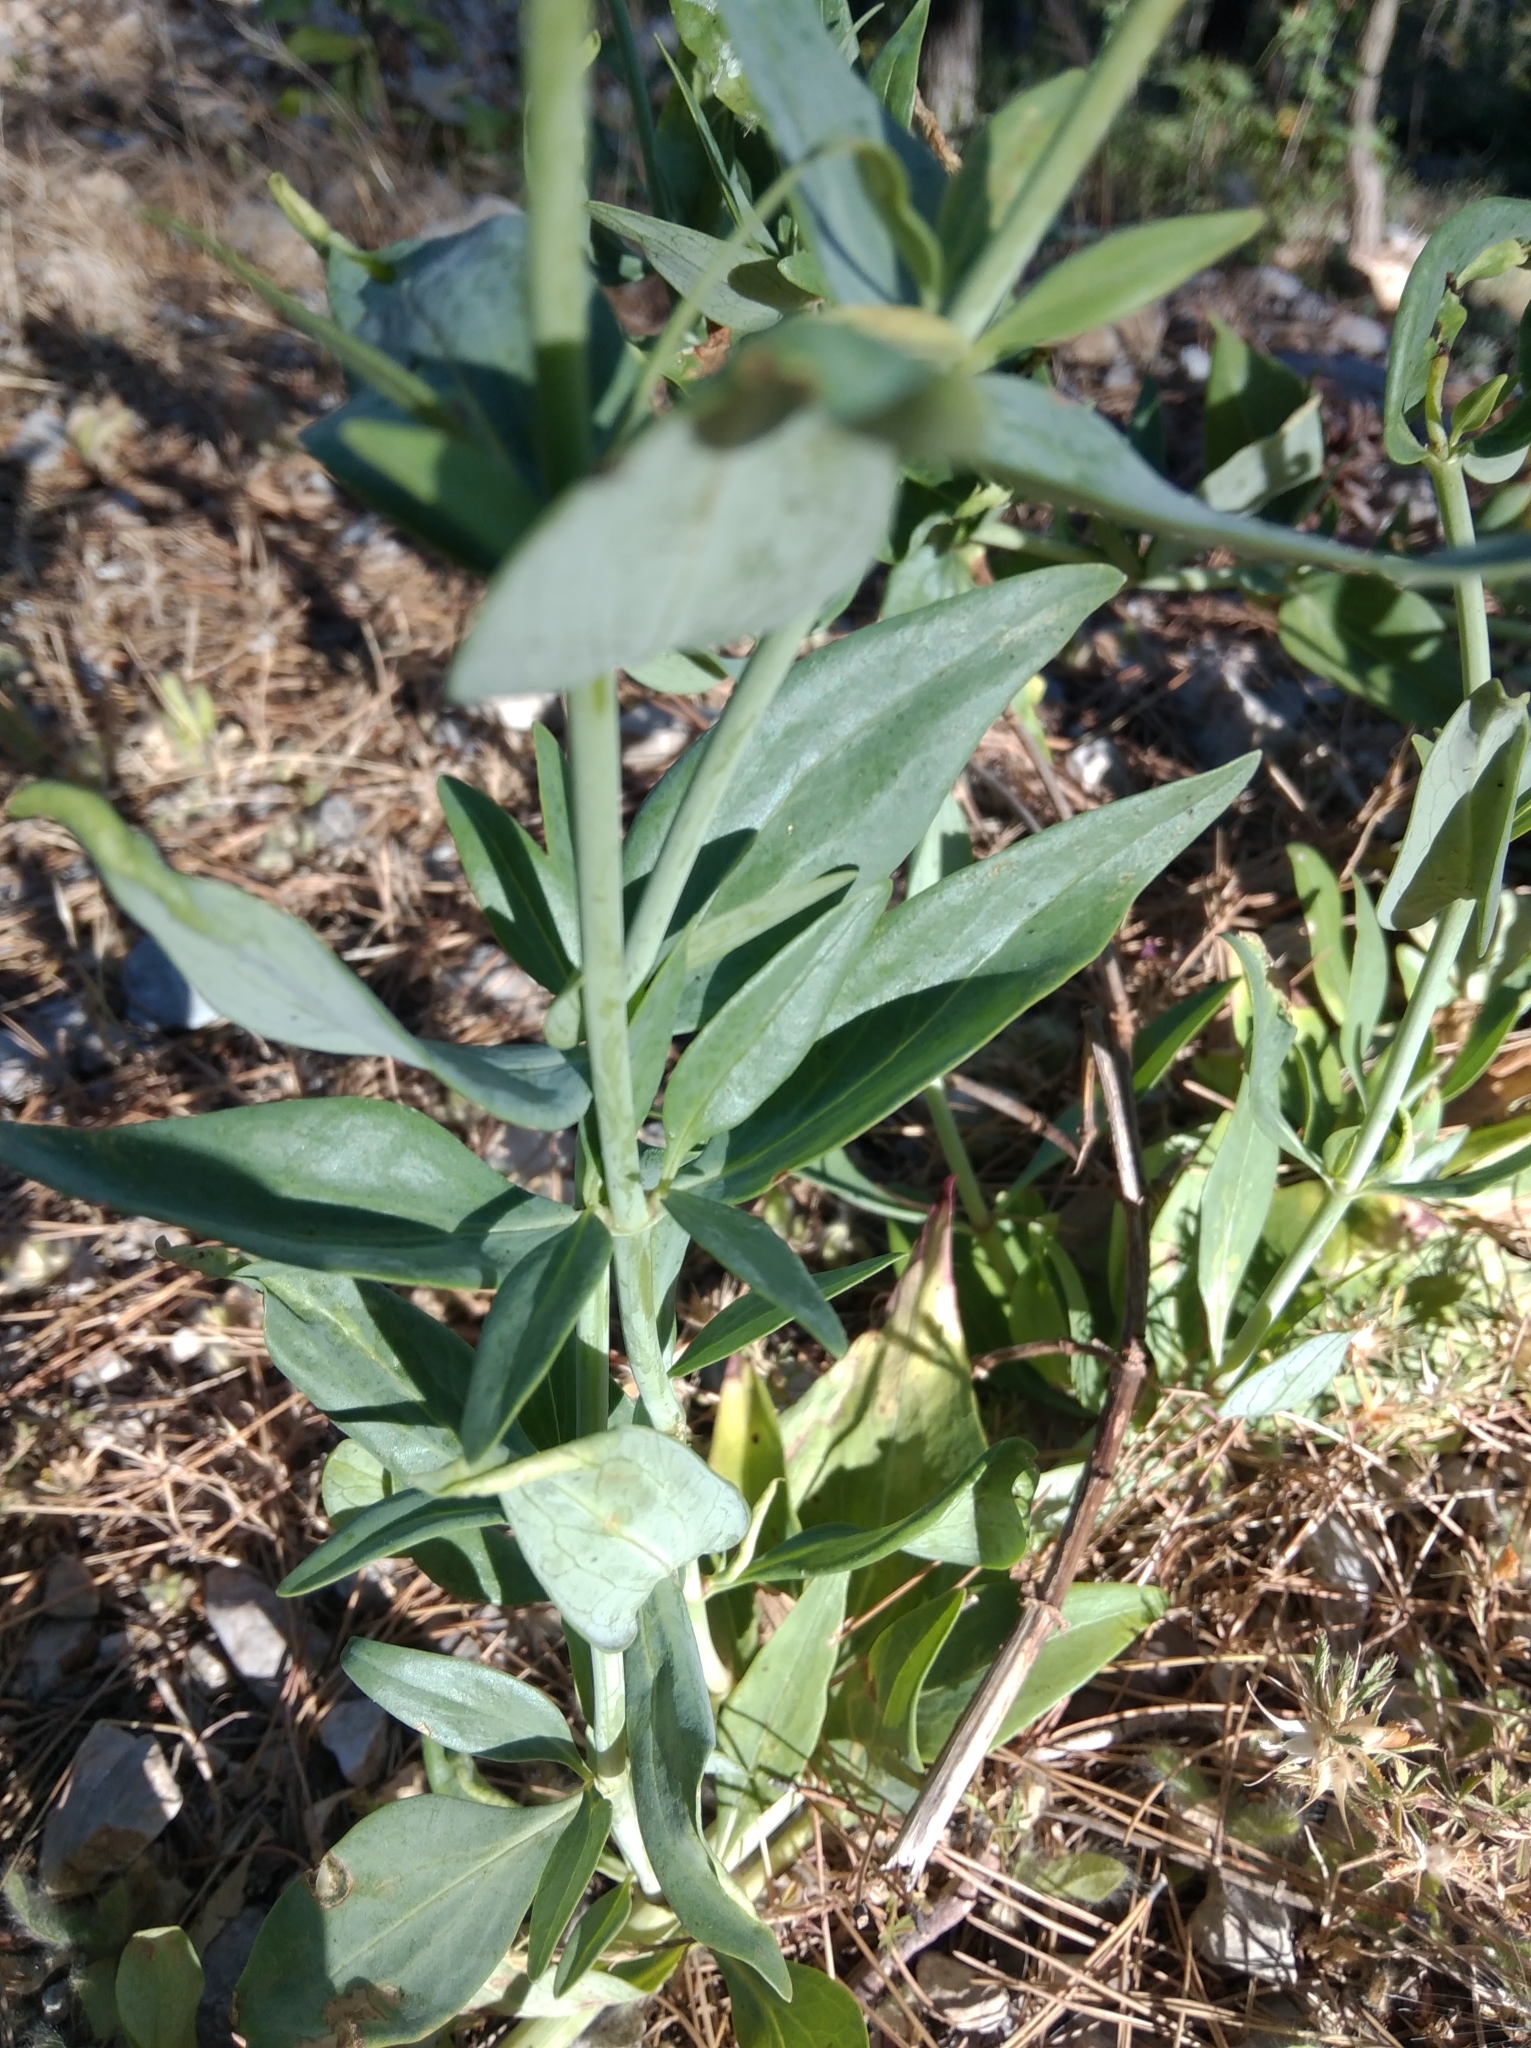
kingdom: Plantae
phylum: Tracheophyta
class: Magnoliopsida
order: Dipsacales
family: Caprifoliaceae
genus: Centranthus
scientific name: Centranthus ruber
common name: Red valerian
